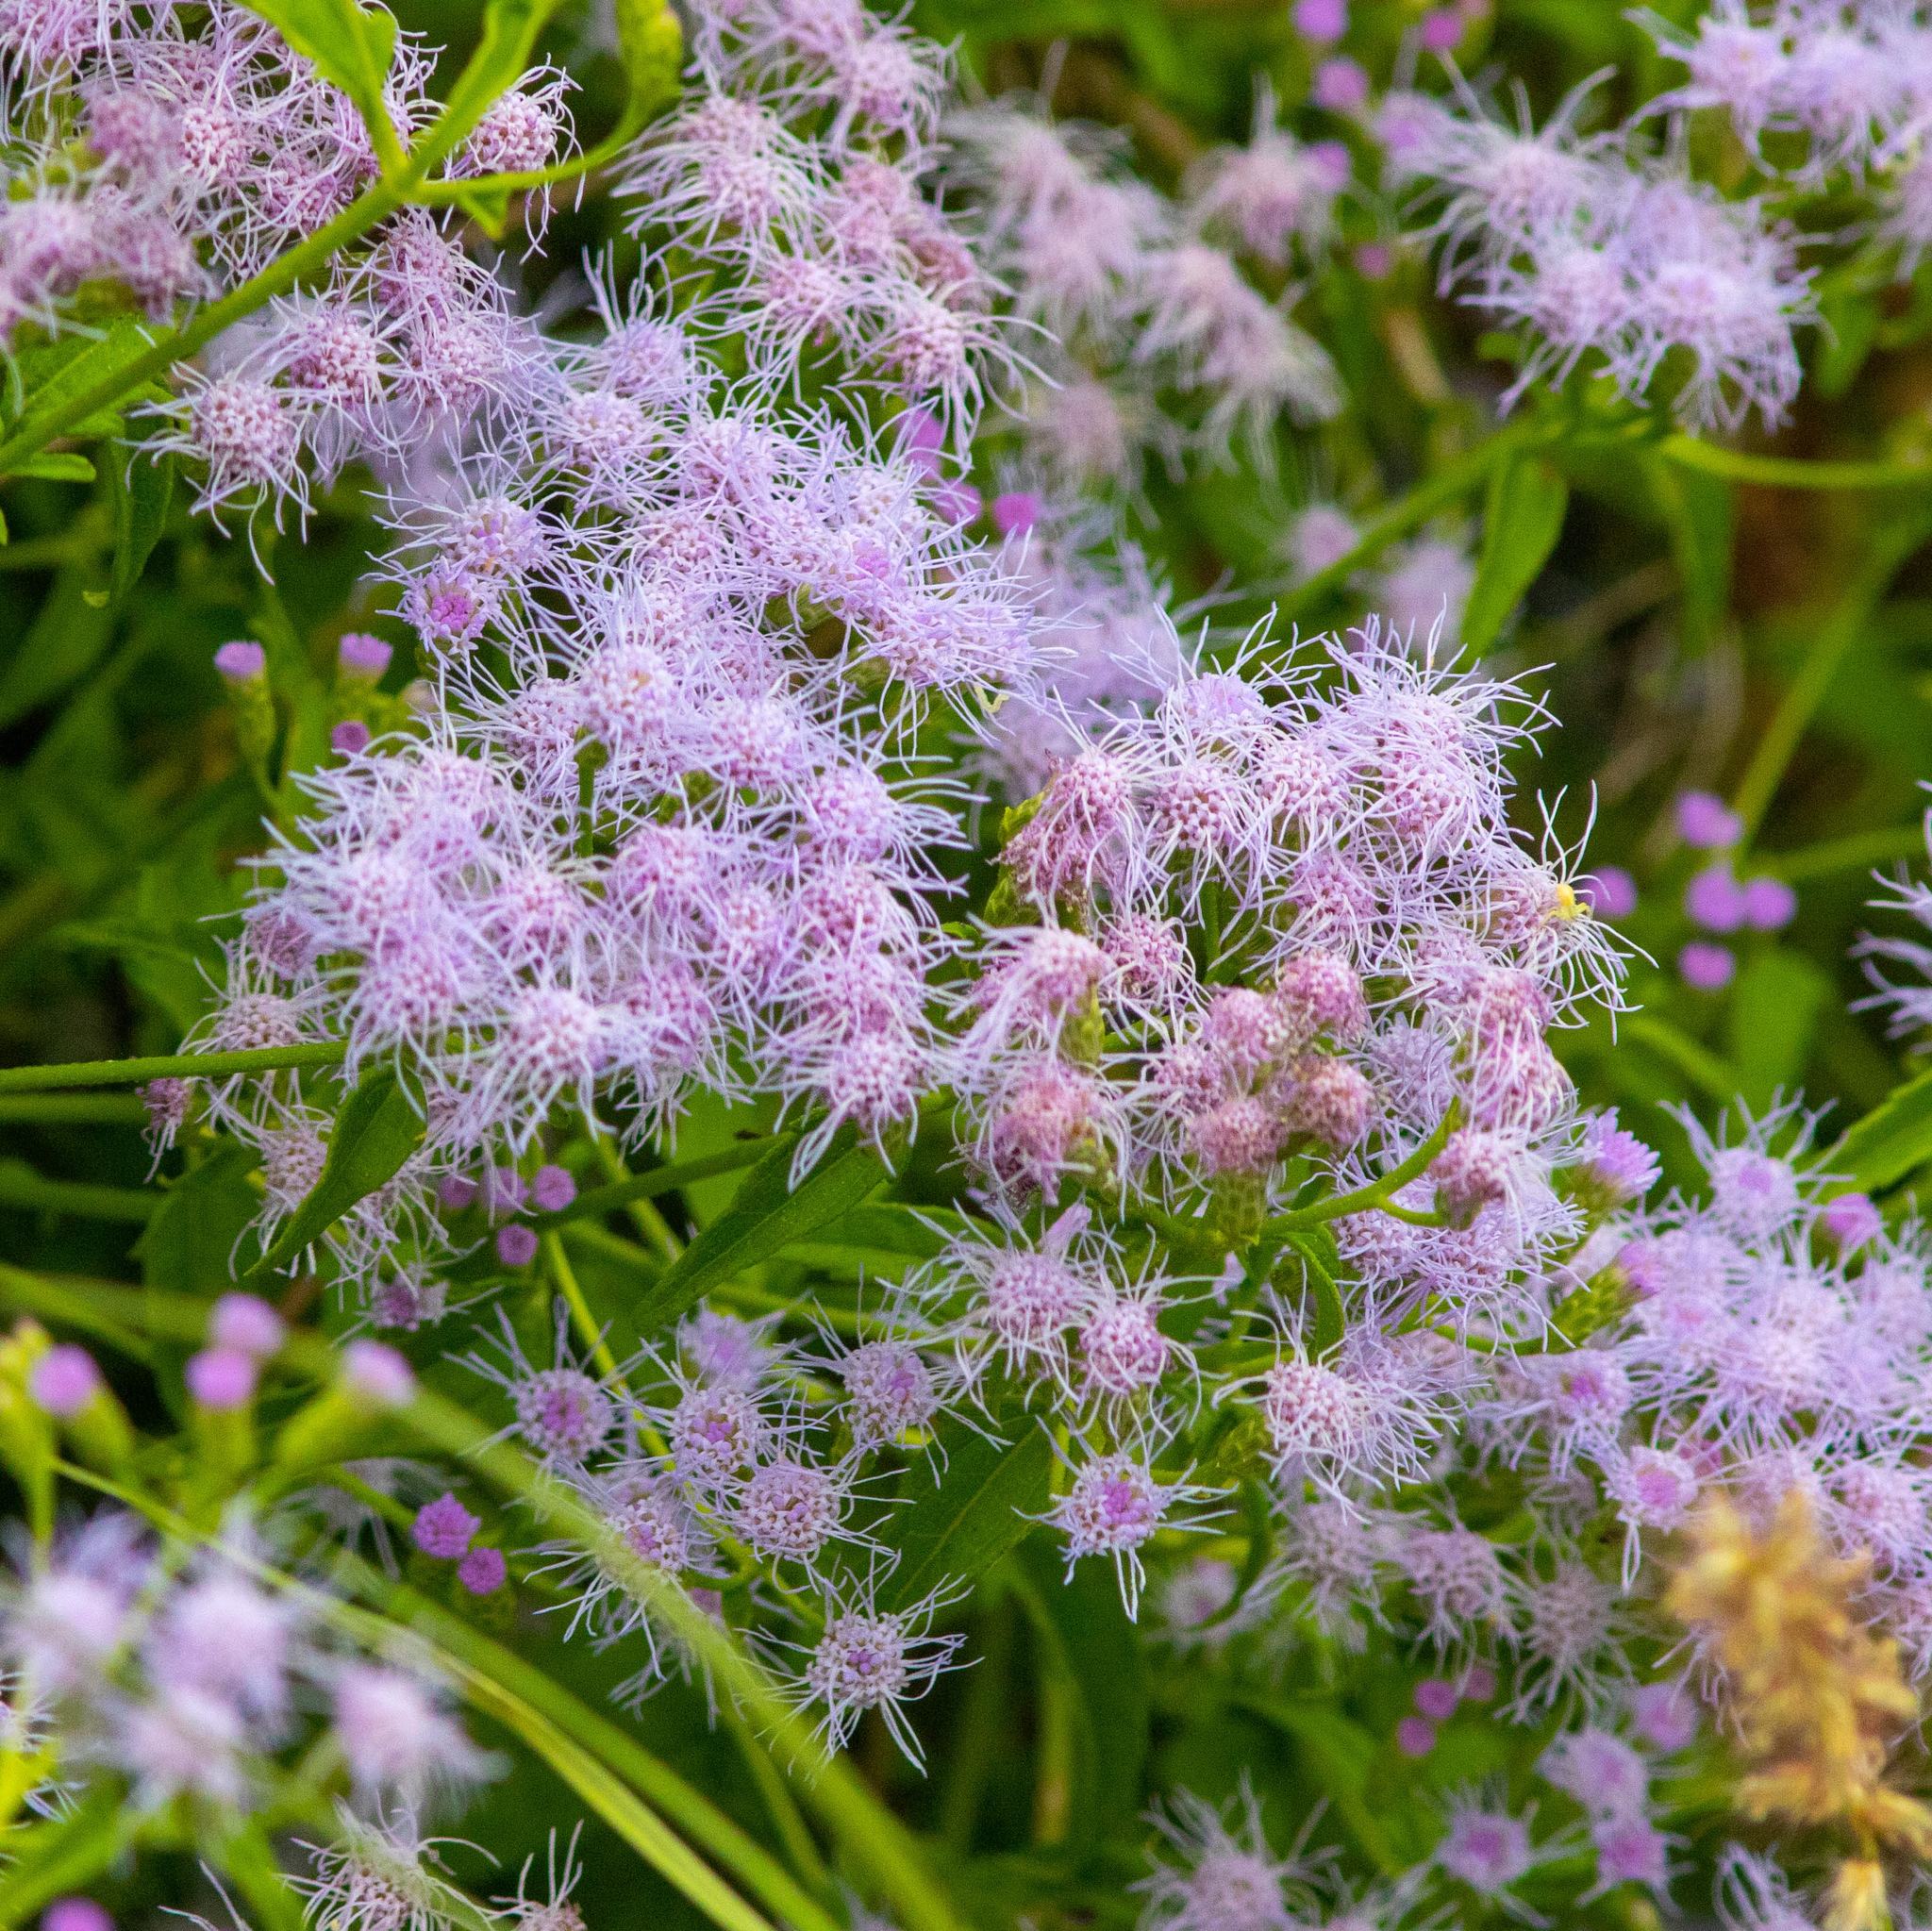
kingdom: Plantae
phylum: Tracheophyta
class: Magnoliopsida
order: Asterales
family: Asteraceae
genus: Chromolaena
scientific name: Chromolaena odorata
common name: Siamweed
